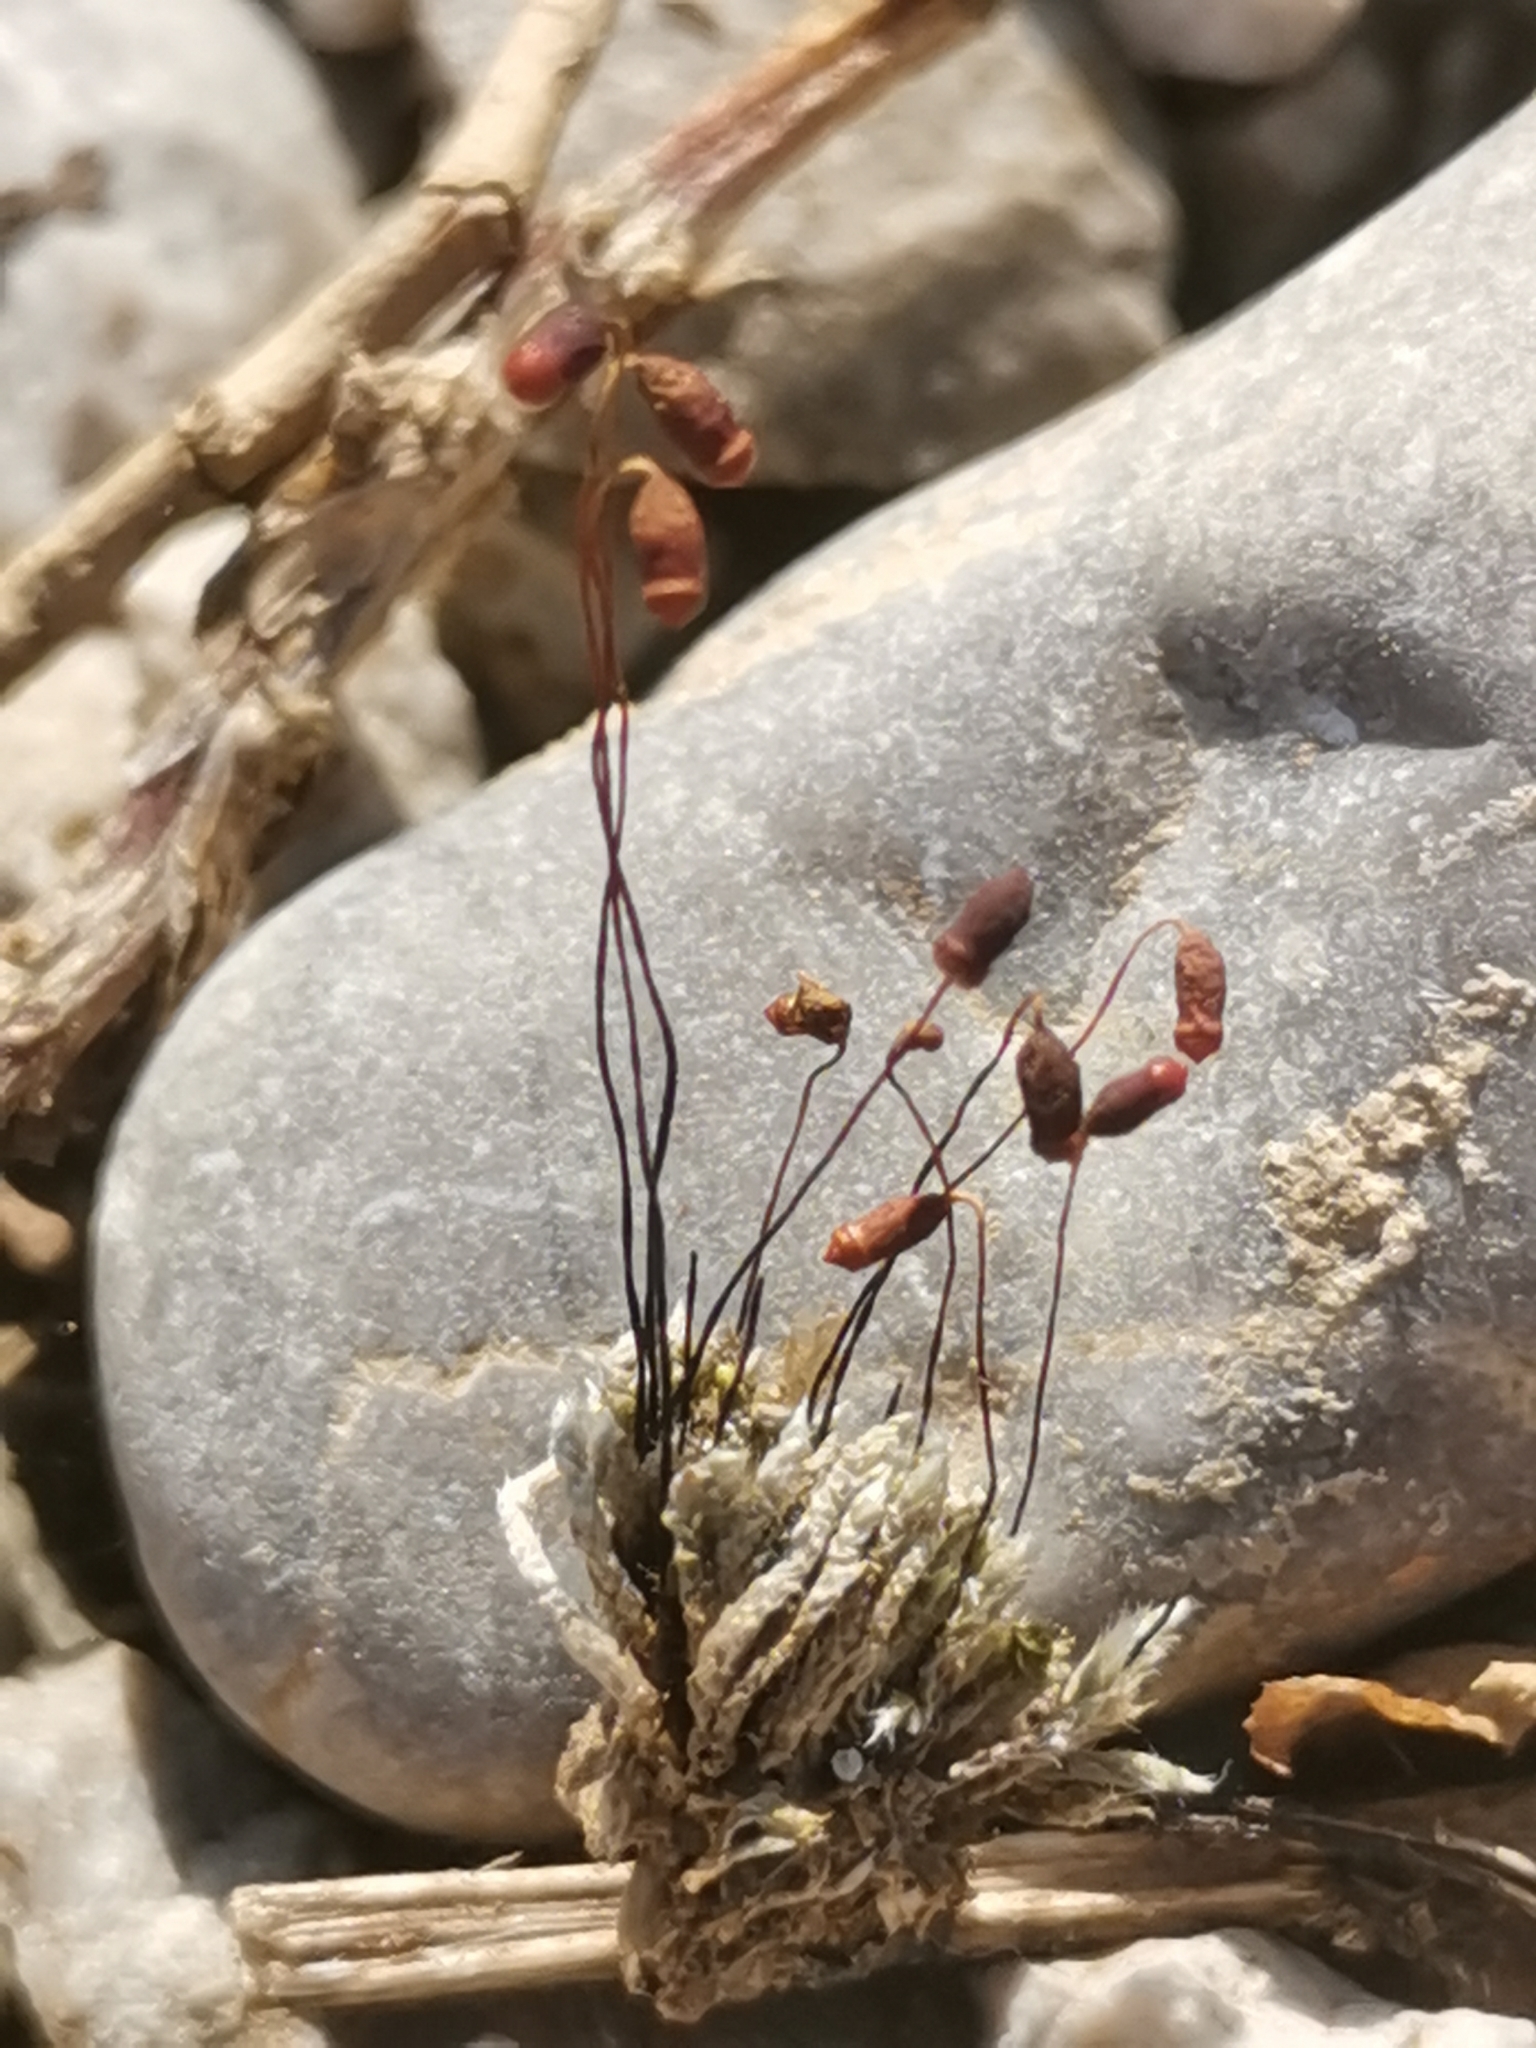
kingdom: Plantae
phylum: Bryophyta
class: Bryopsida
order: Bryales
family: Bryaceae
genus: Bryum
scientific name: Bryum argenteum
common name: Silver-moss
